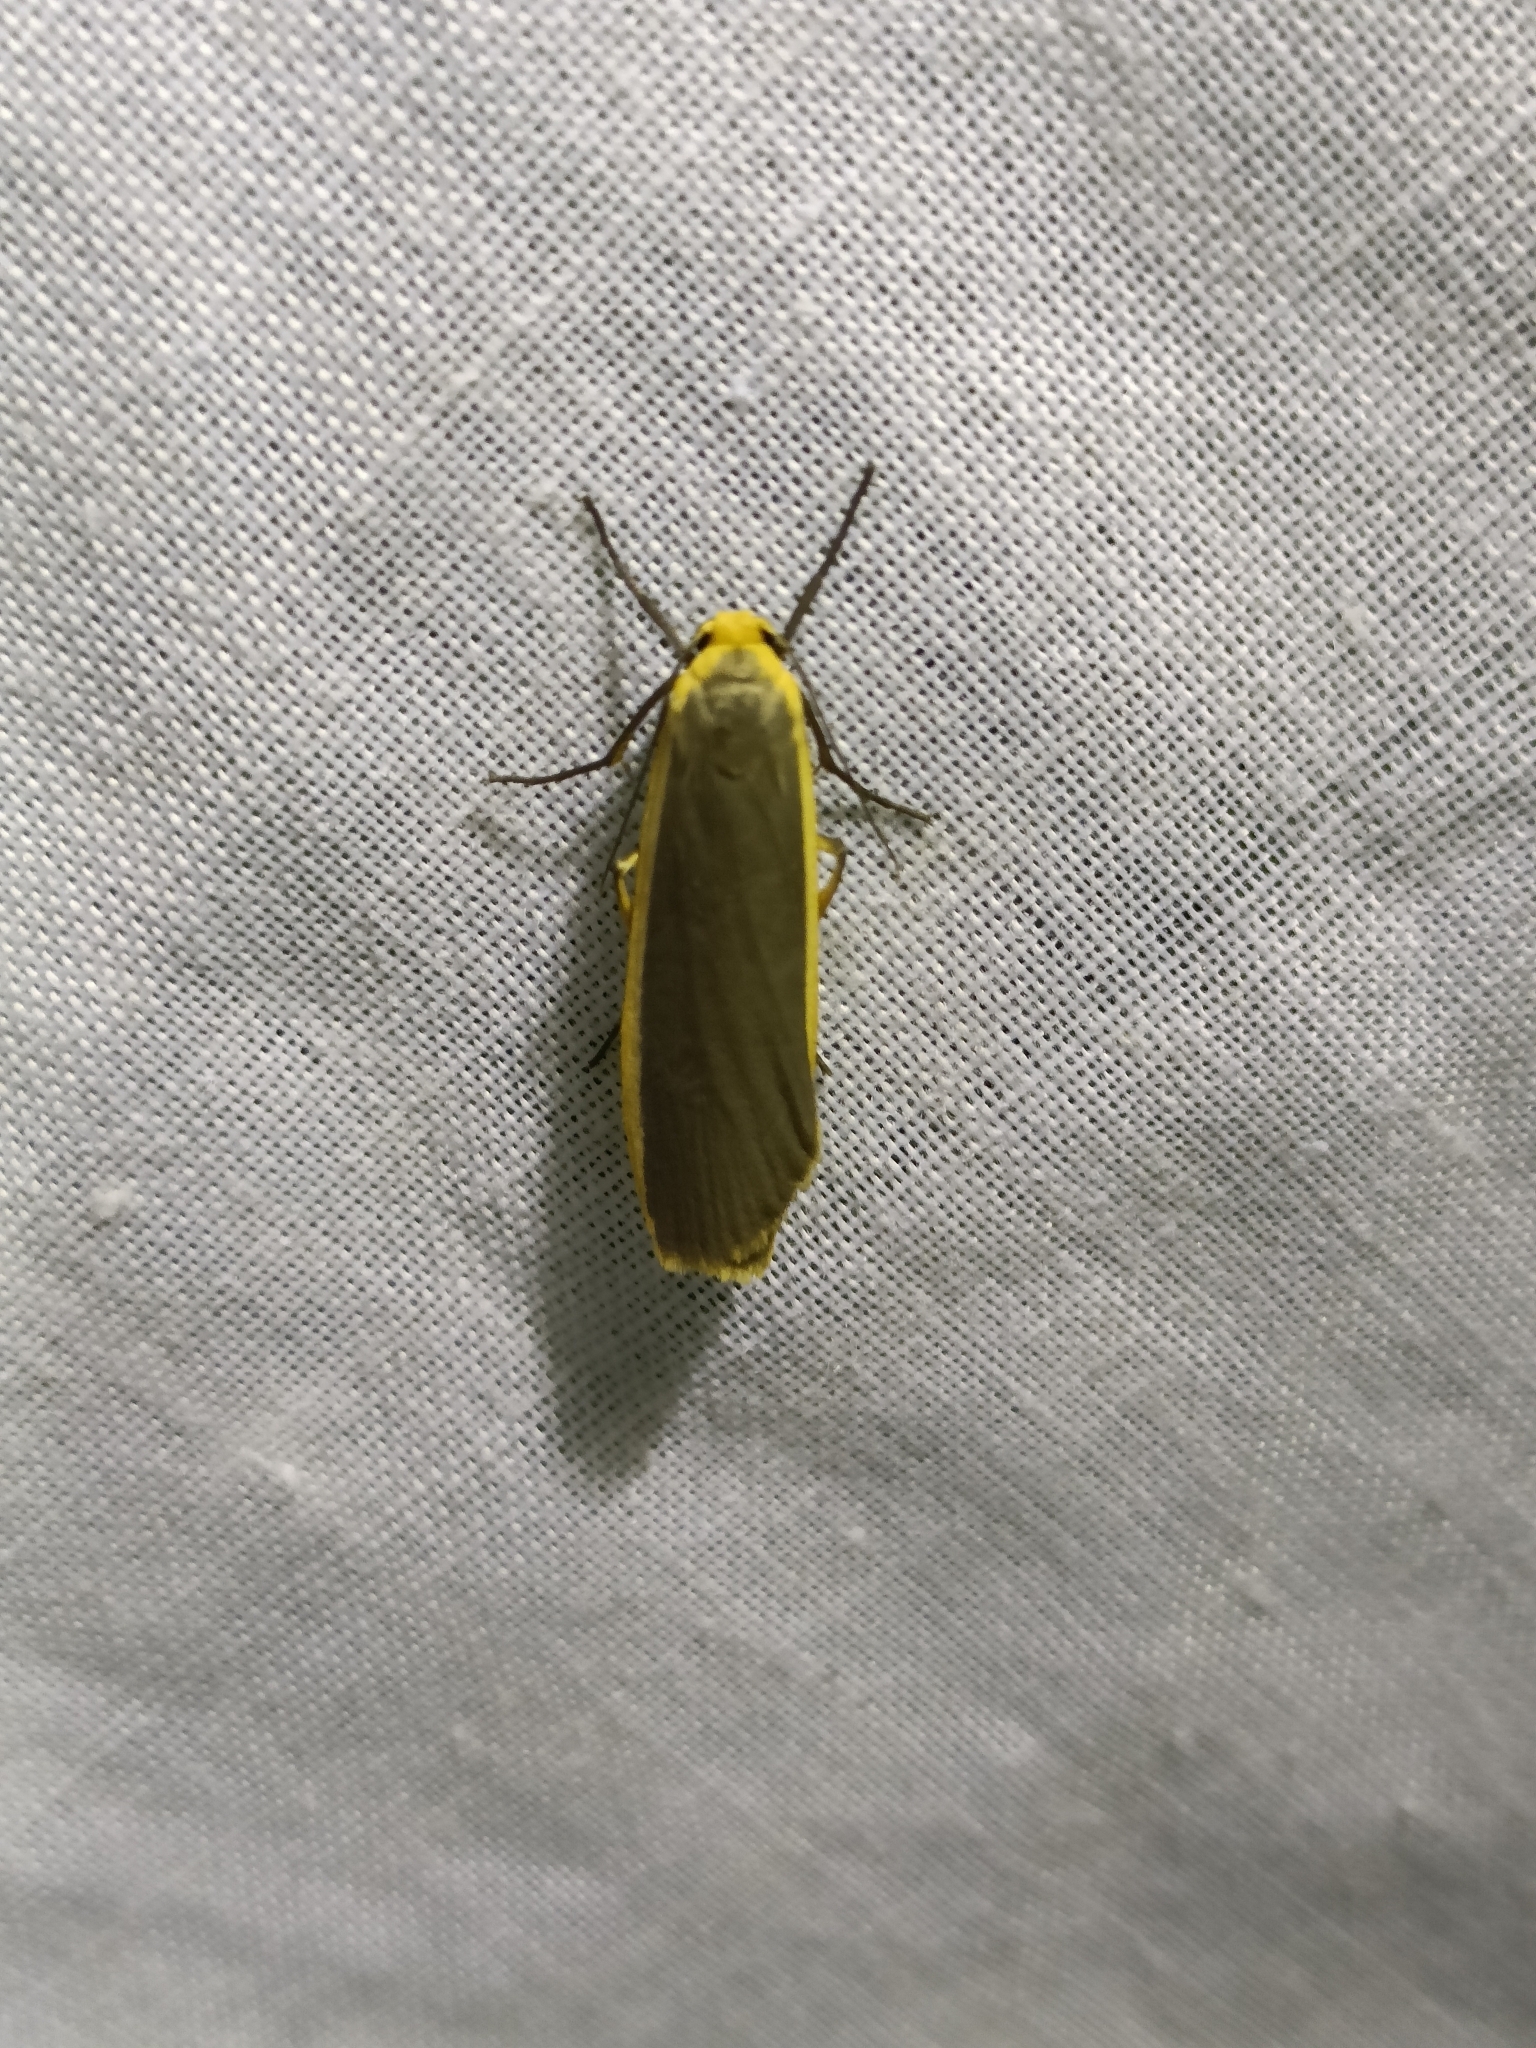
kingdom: Animalia
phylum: Arthropoda
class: Insecta
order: Lepidoptera
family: Erebidae
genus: Nyea
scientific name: Nyea lurideola
